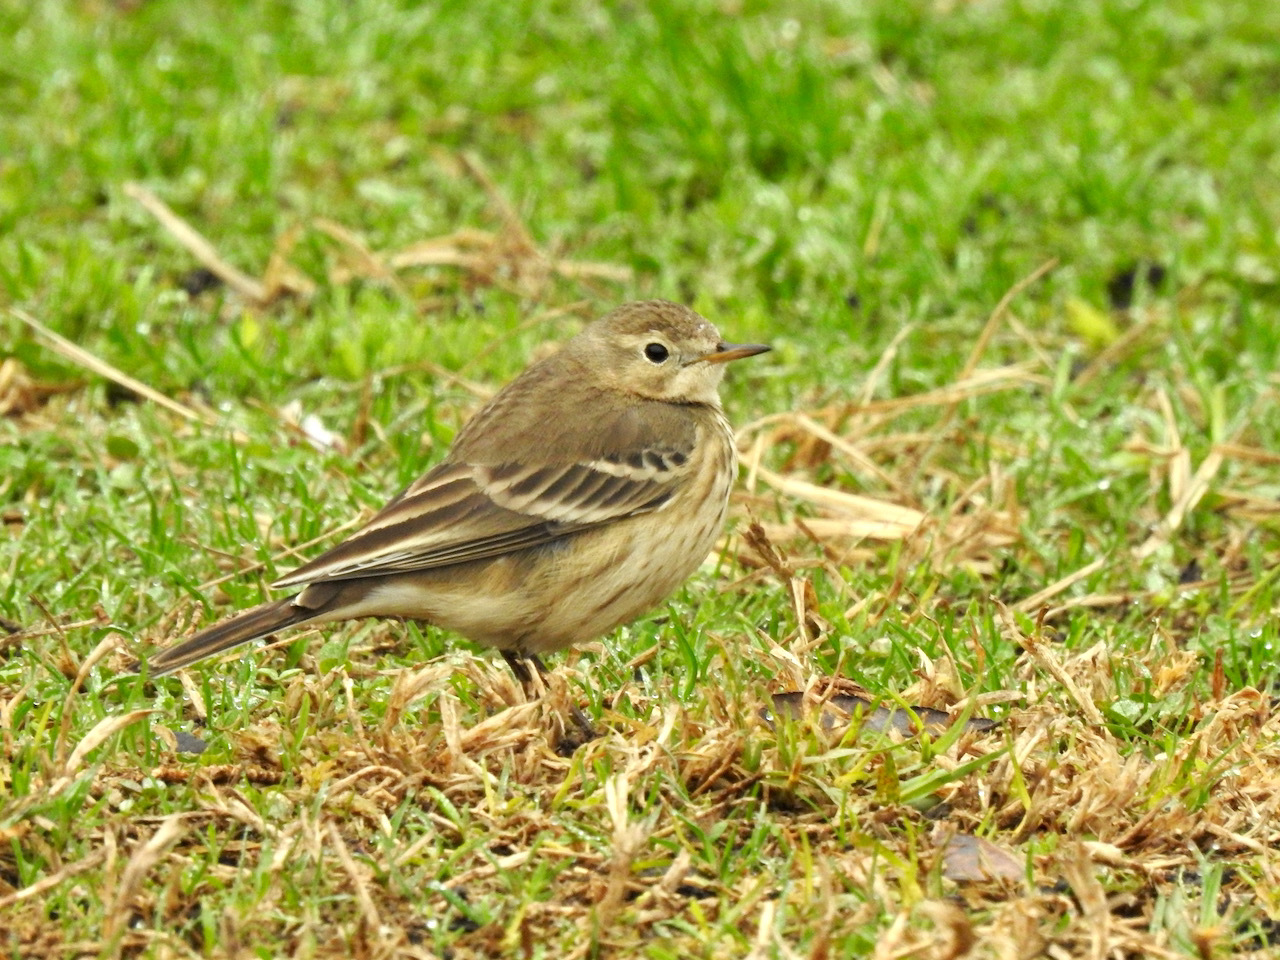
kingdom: Animalia
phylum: Chordata
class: Aves
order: Passeriformes
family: Motacillidae
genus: Anthus
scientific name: Anthus rubescens
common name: Buff-bellied pipit
